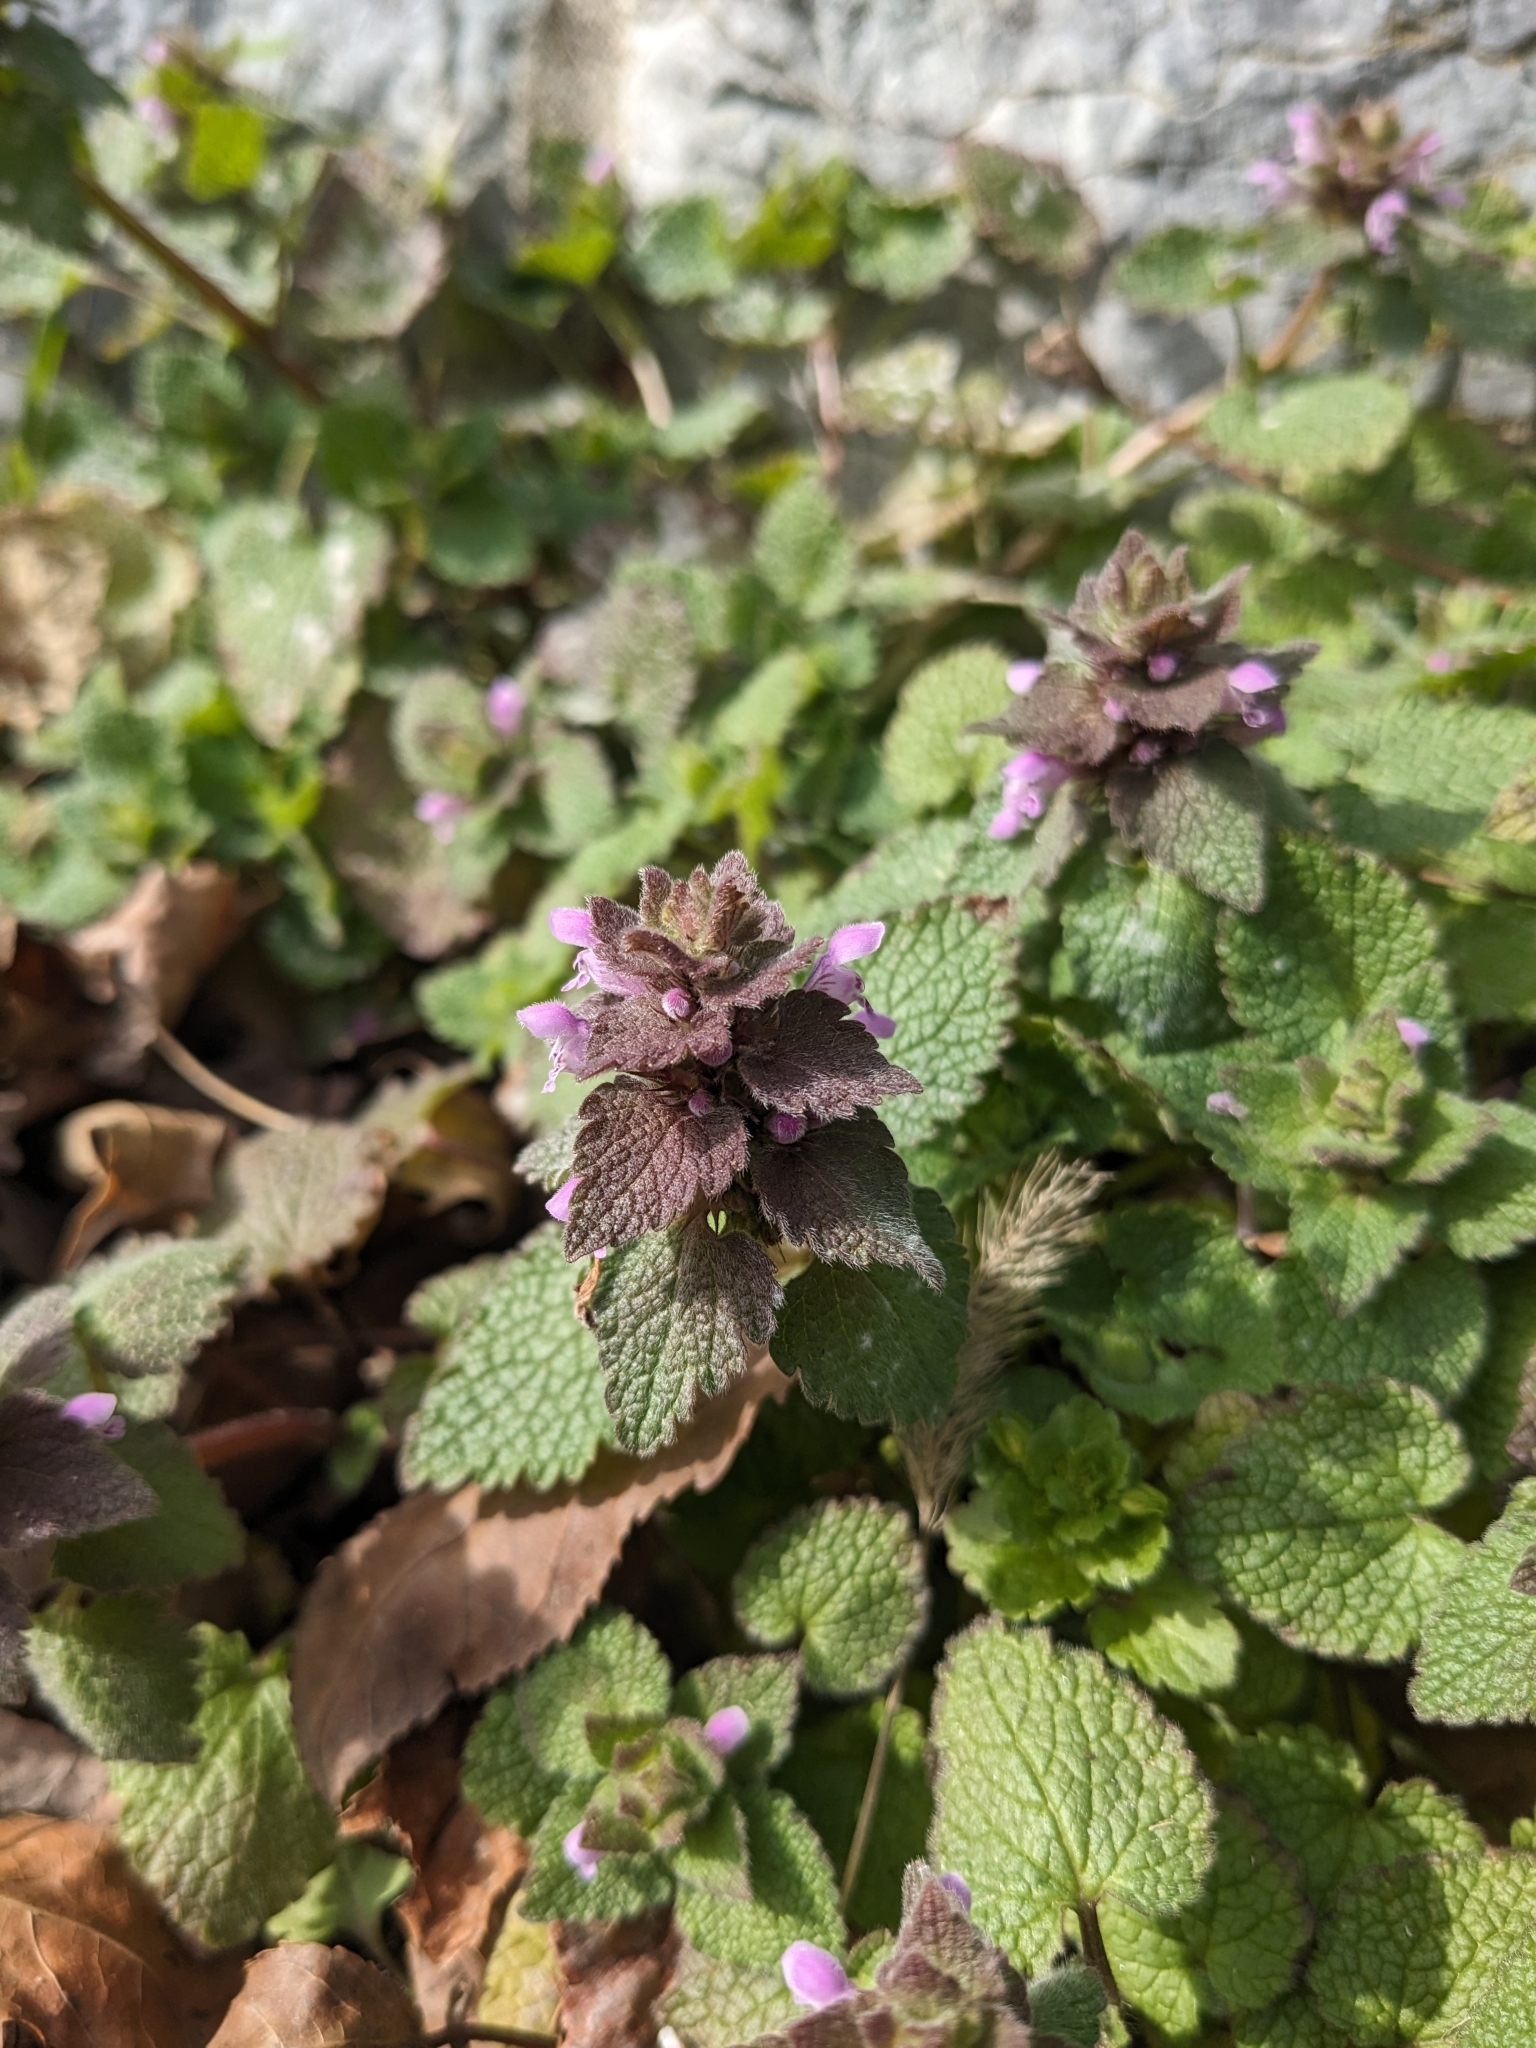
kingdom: Plantae
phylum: Tracheophyta
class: Magnoliopsida
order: Lamiales
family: Lamiaceae
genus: Lamium
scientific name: Lamium purpureum
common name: Red dead-nettle
